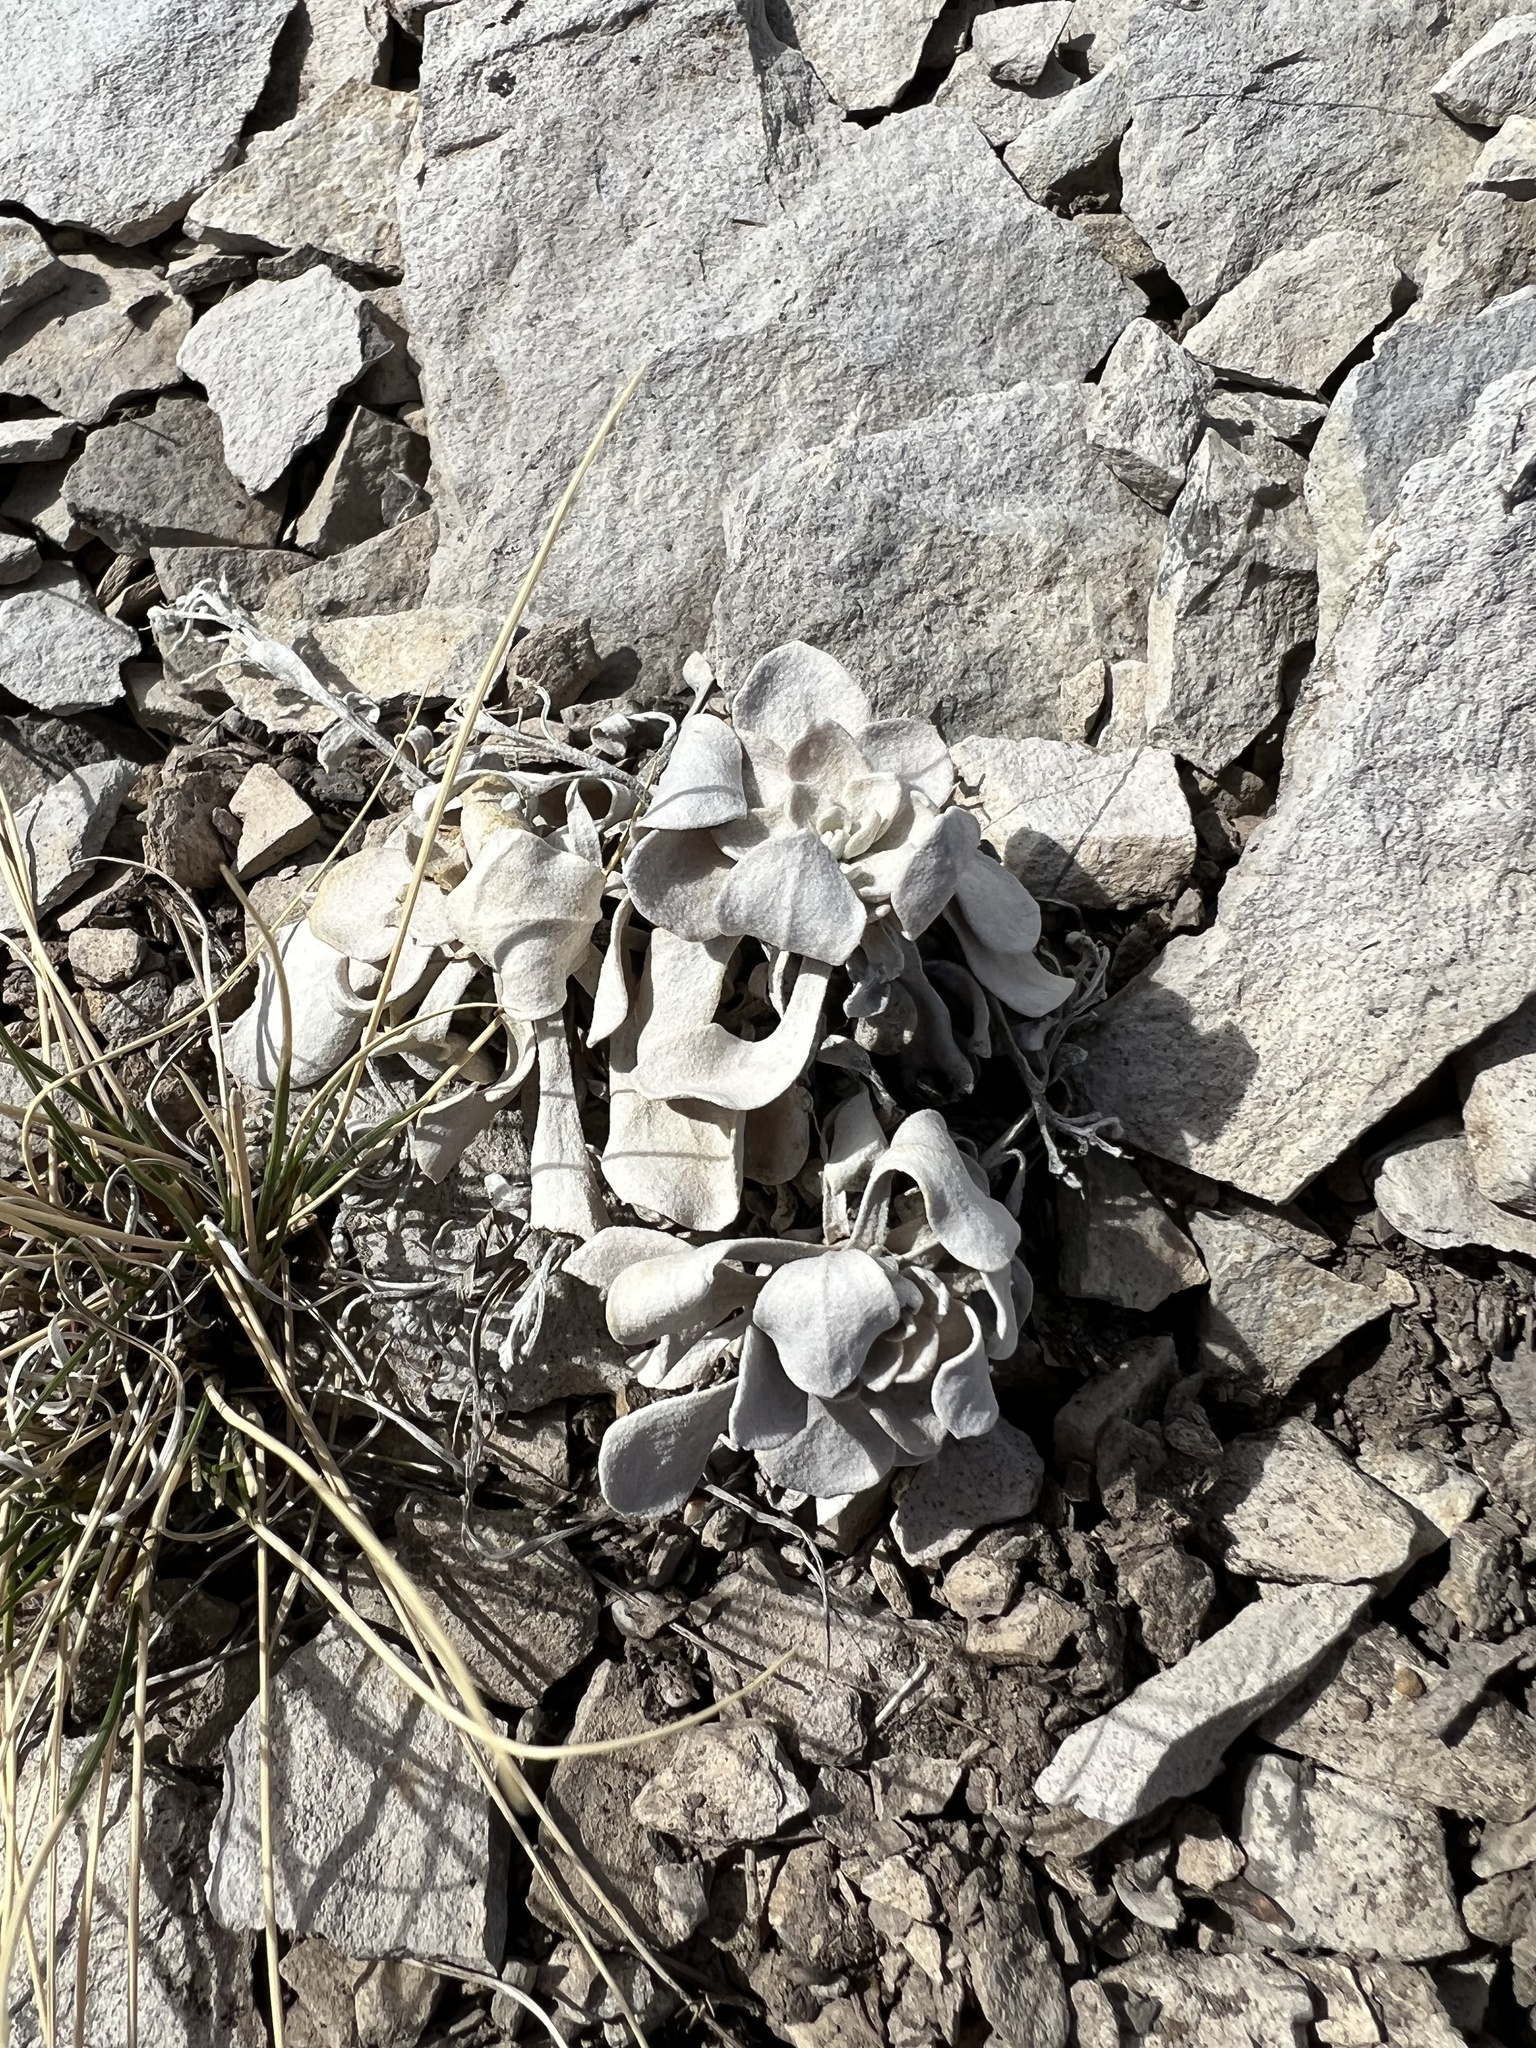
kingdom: Plantae
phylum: Tracheophyta
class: Magnoliopsida
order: Brassicales
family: Brassicaceae
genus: Physaria
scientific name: Physaria bellii
